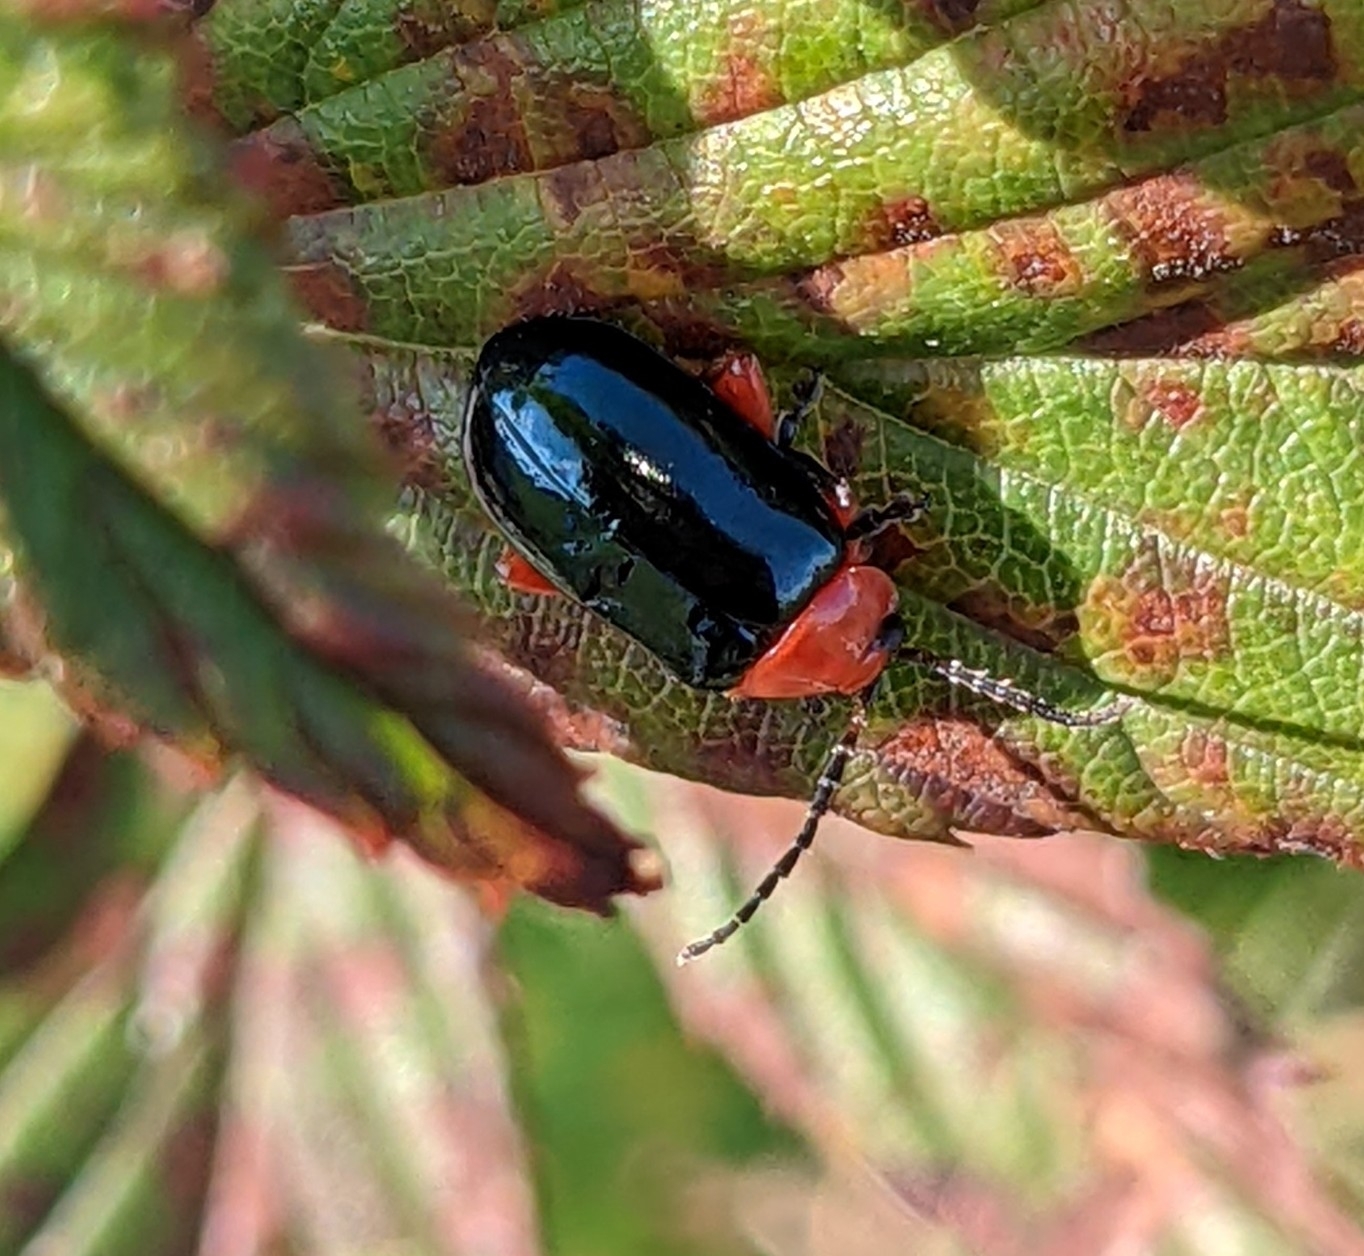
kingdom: Animalia
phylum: Arthropoda
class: Insecta
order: Coleoptera
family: Chrysomelidae
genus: Asphaera
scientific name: Asphaera lustrans
